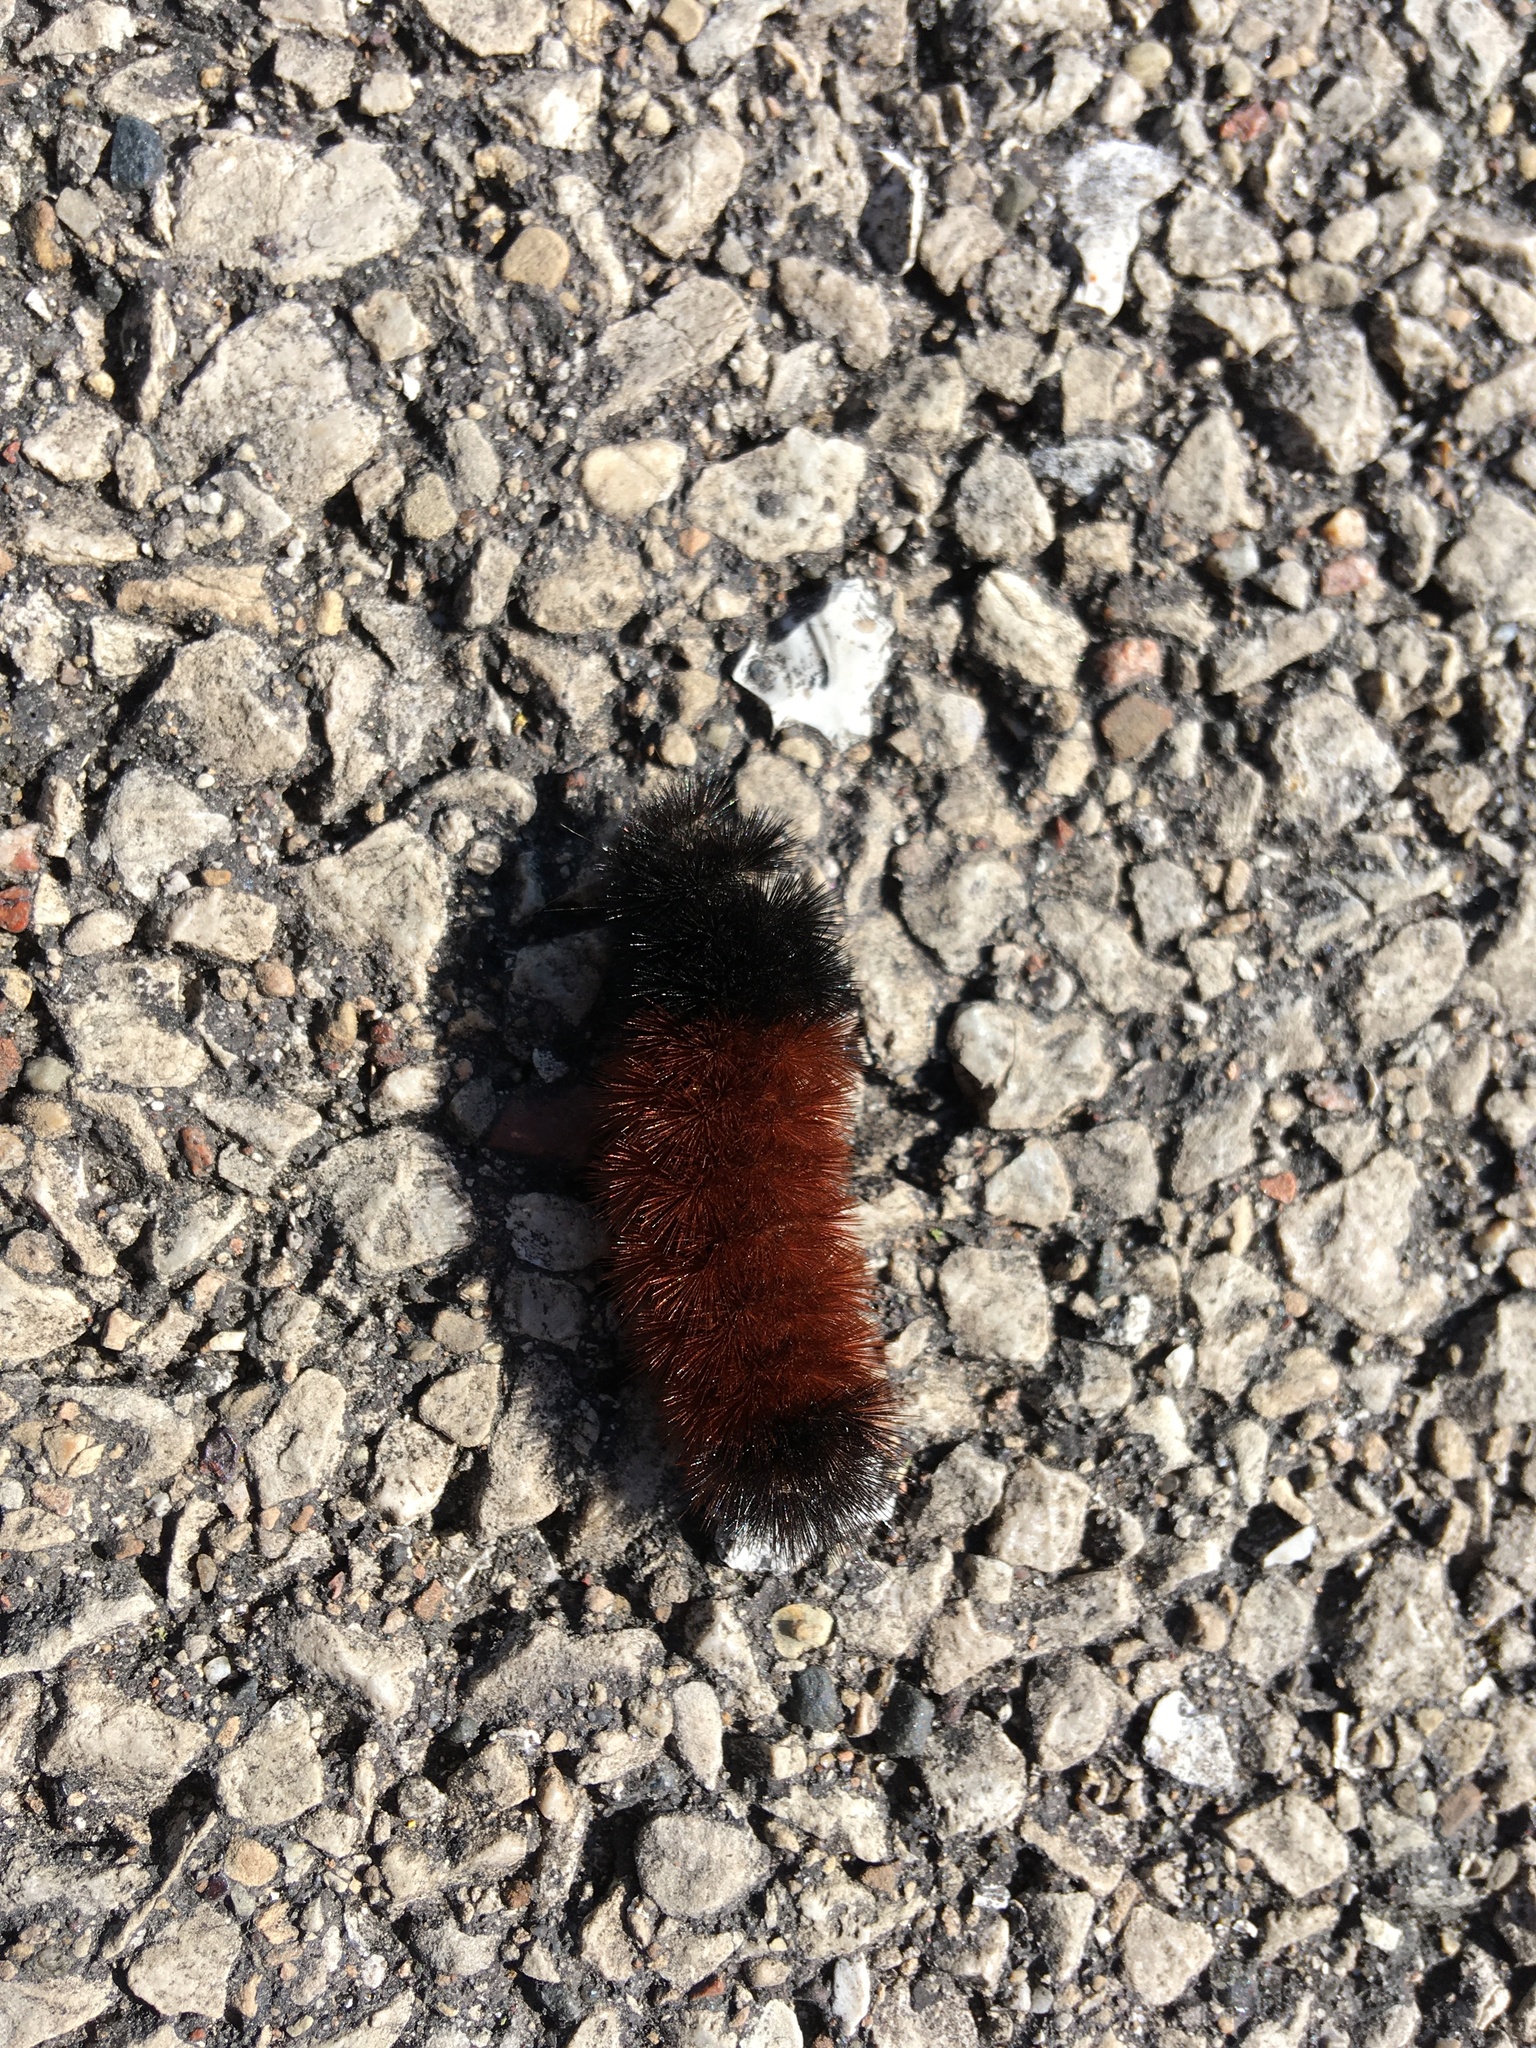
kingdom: Animalia
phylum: Arthropoda
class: Insecta
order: Lepidoptera
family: Erebidae
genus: Pyrrharctia
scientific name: Pyrrharctia isabella
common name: Isabella tiger moth
